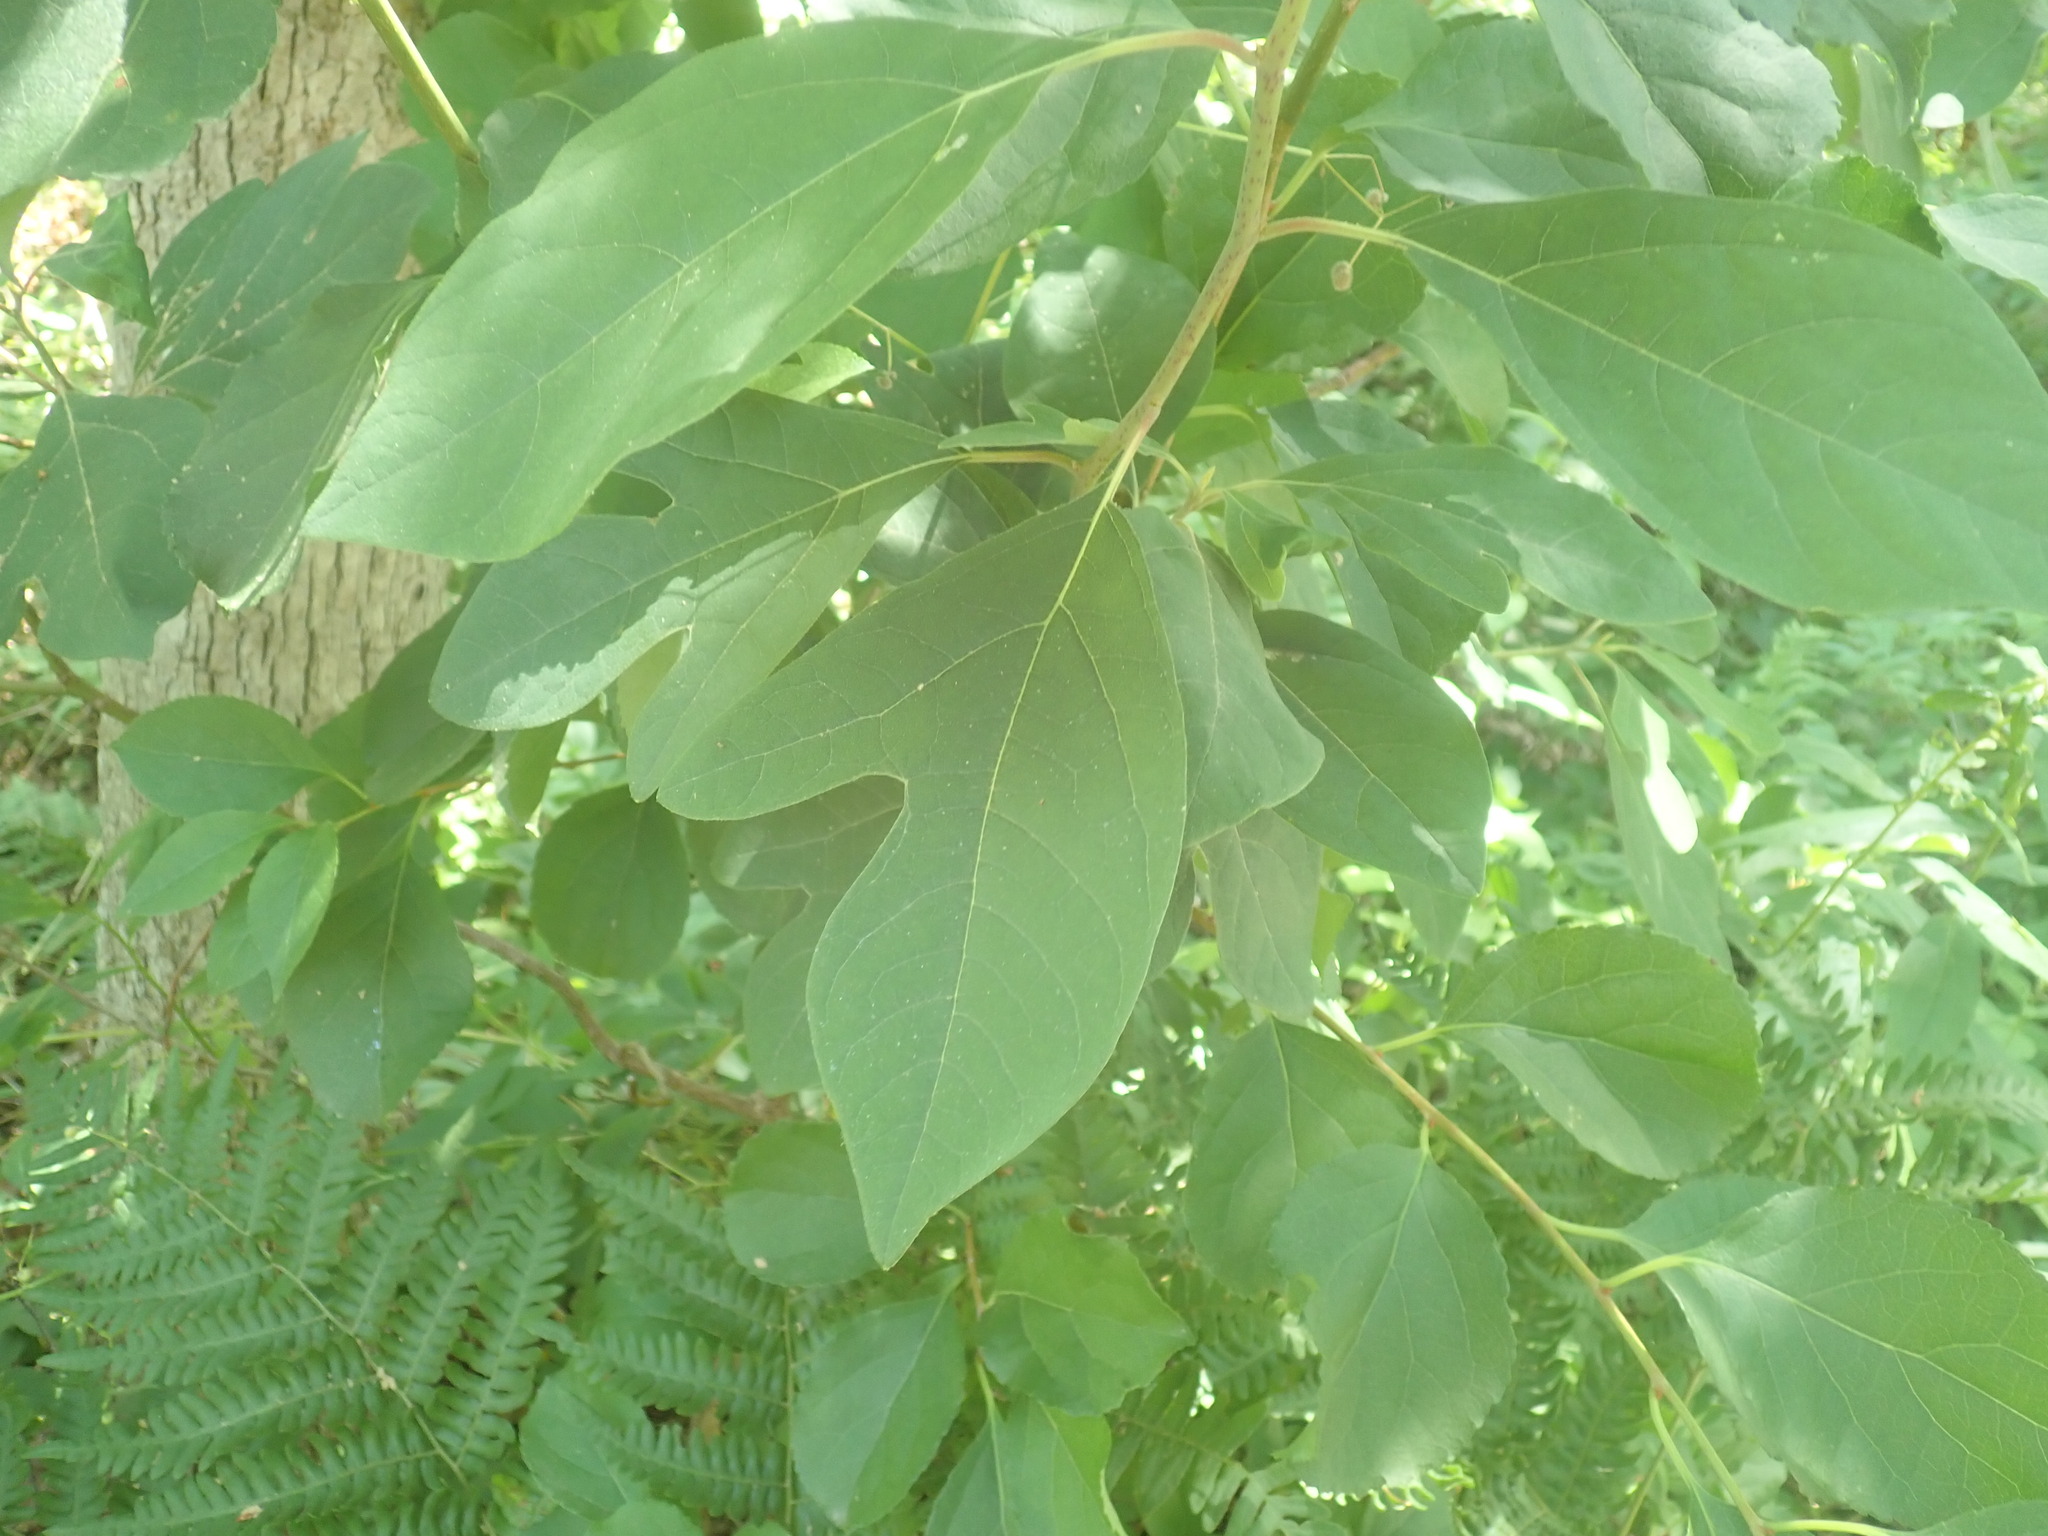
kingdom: Plantae
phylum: Tracheophyta
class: Magnoliopsida
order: Laurales
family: Lauraceae
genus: Sassafras
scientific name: Sassafras albidum
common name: Sassafras
